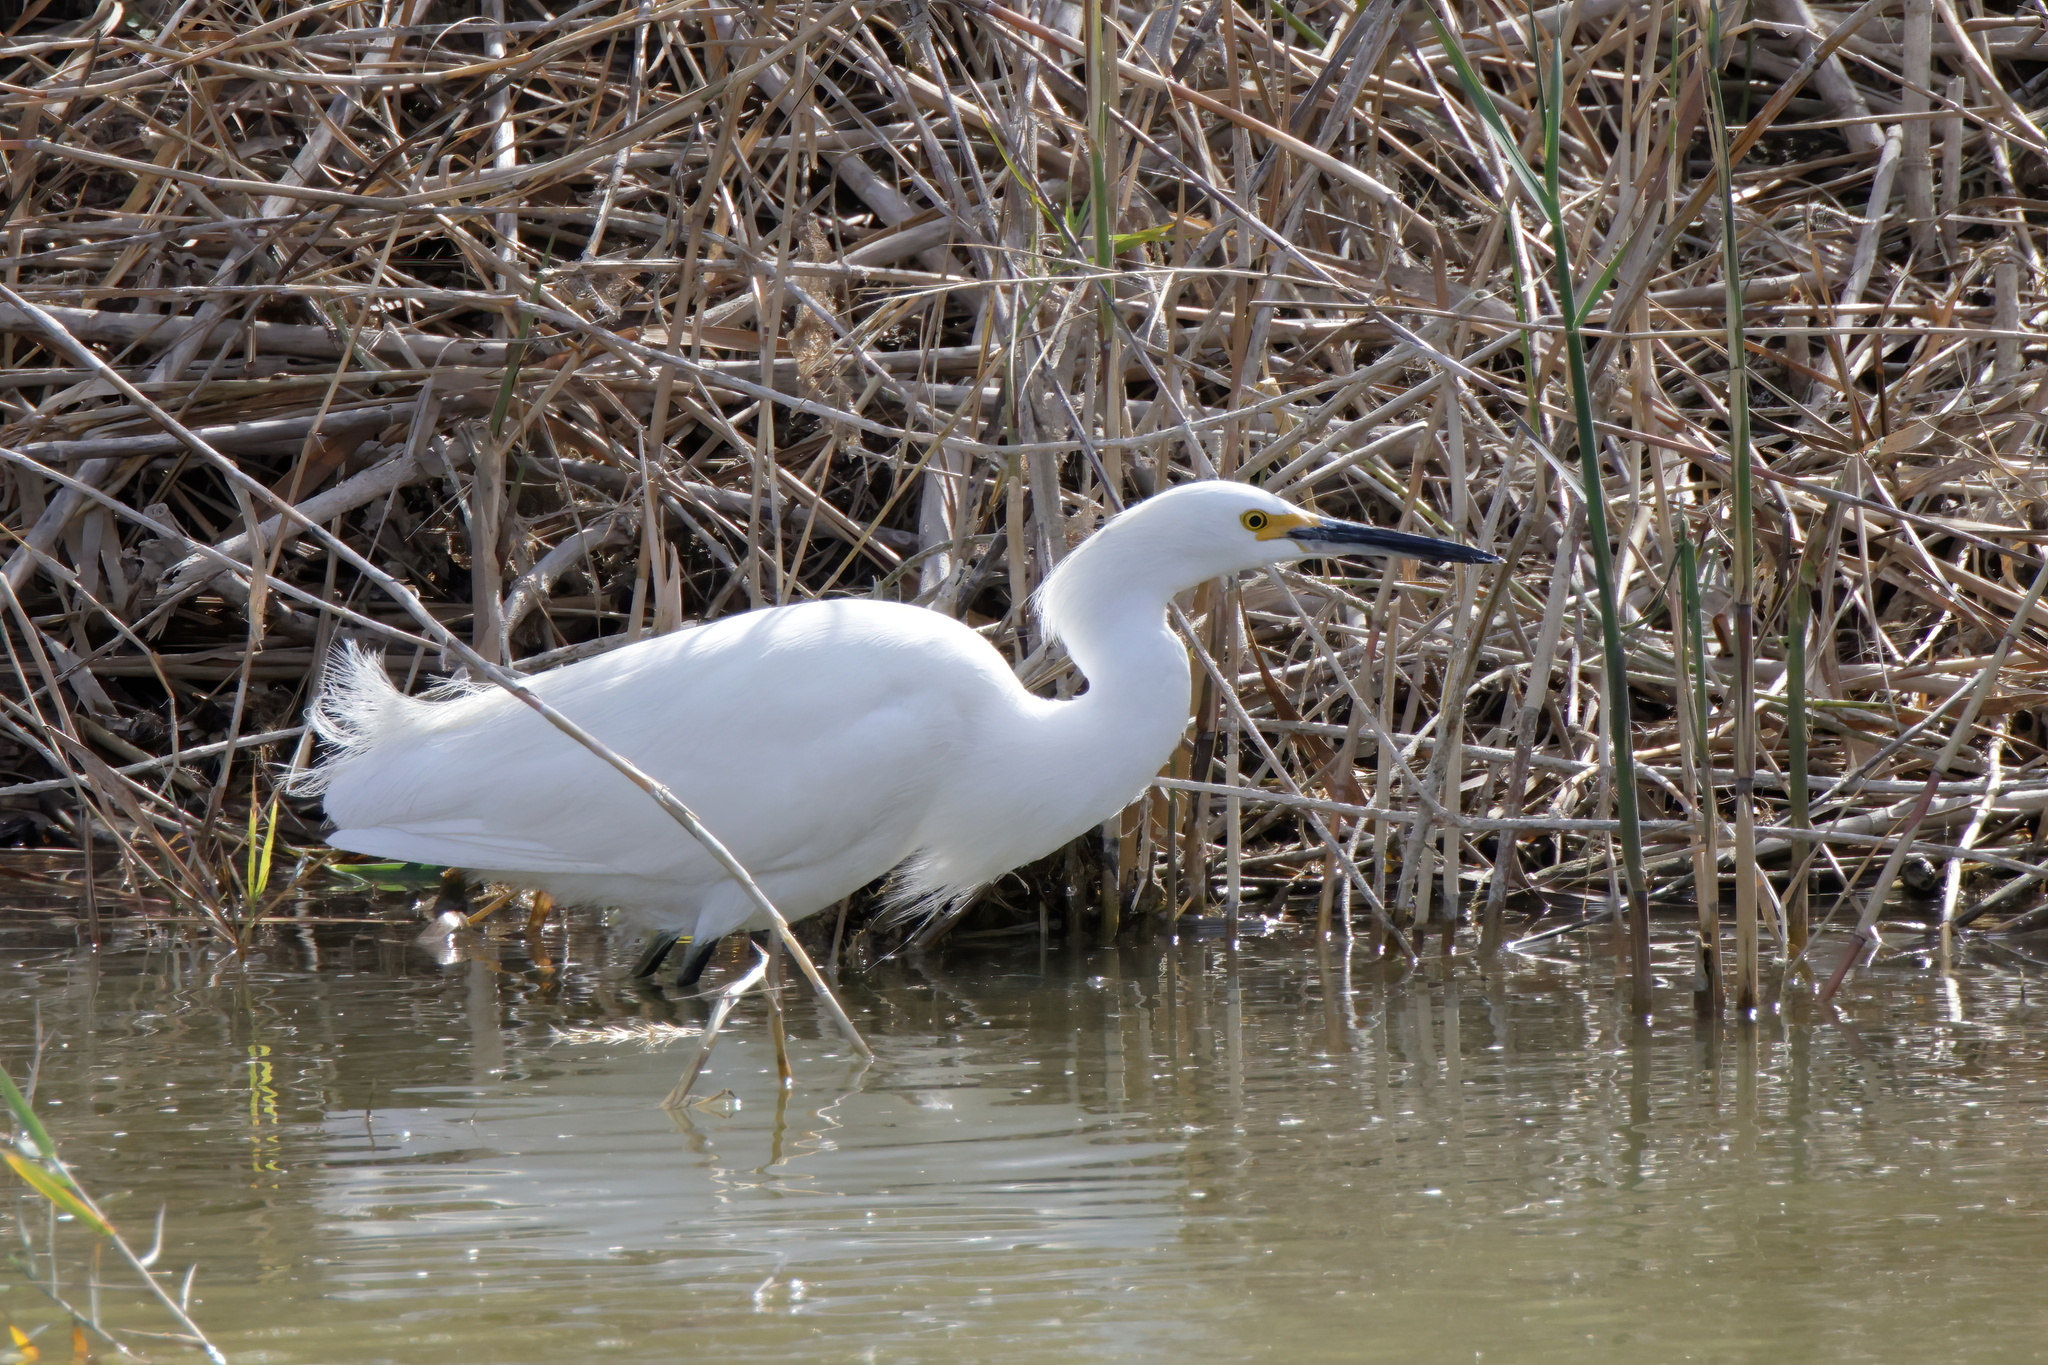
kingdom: Animalia
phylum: Chordata
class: Aves
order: Pelecaniformes
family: Ardeidae
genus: Egretta
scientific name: Egretta thula
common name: Snowy egret
